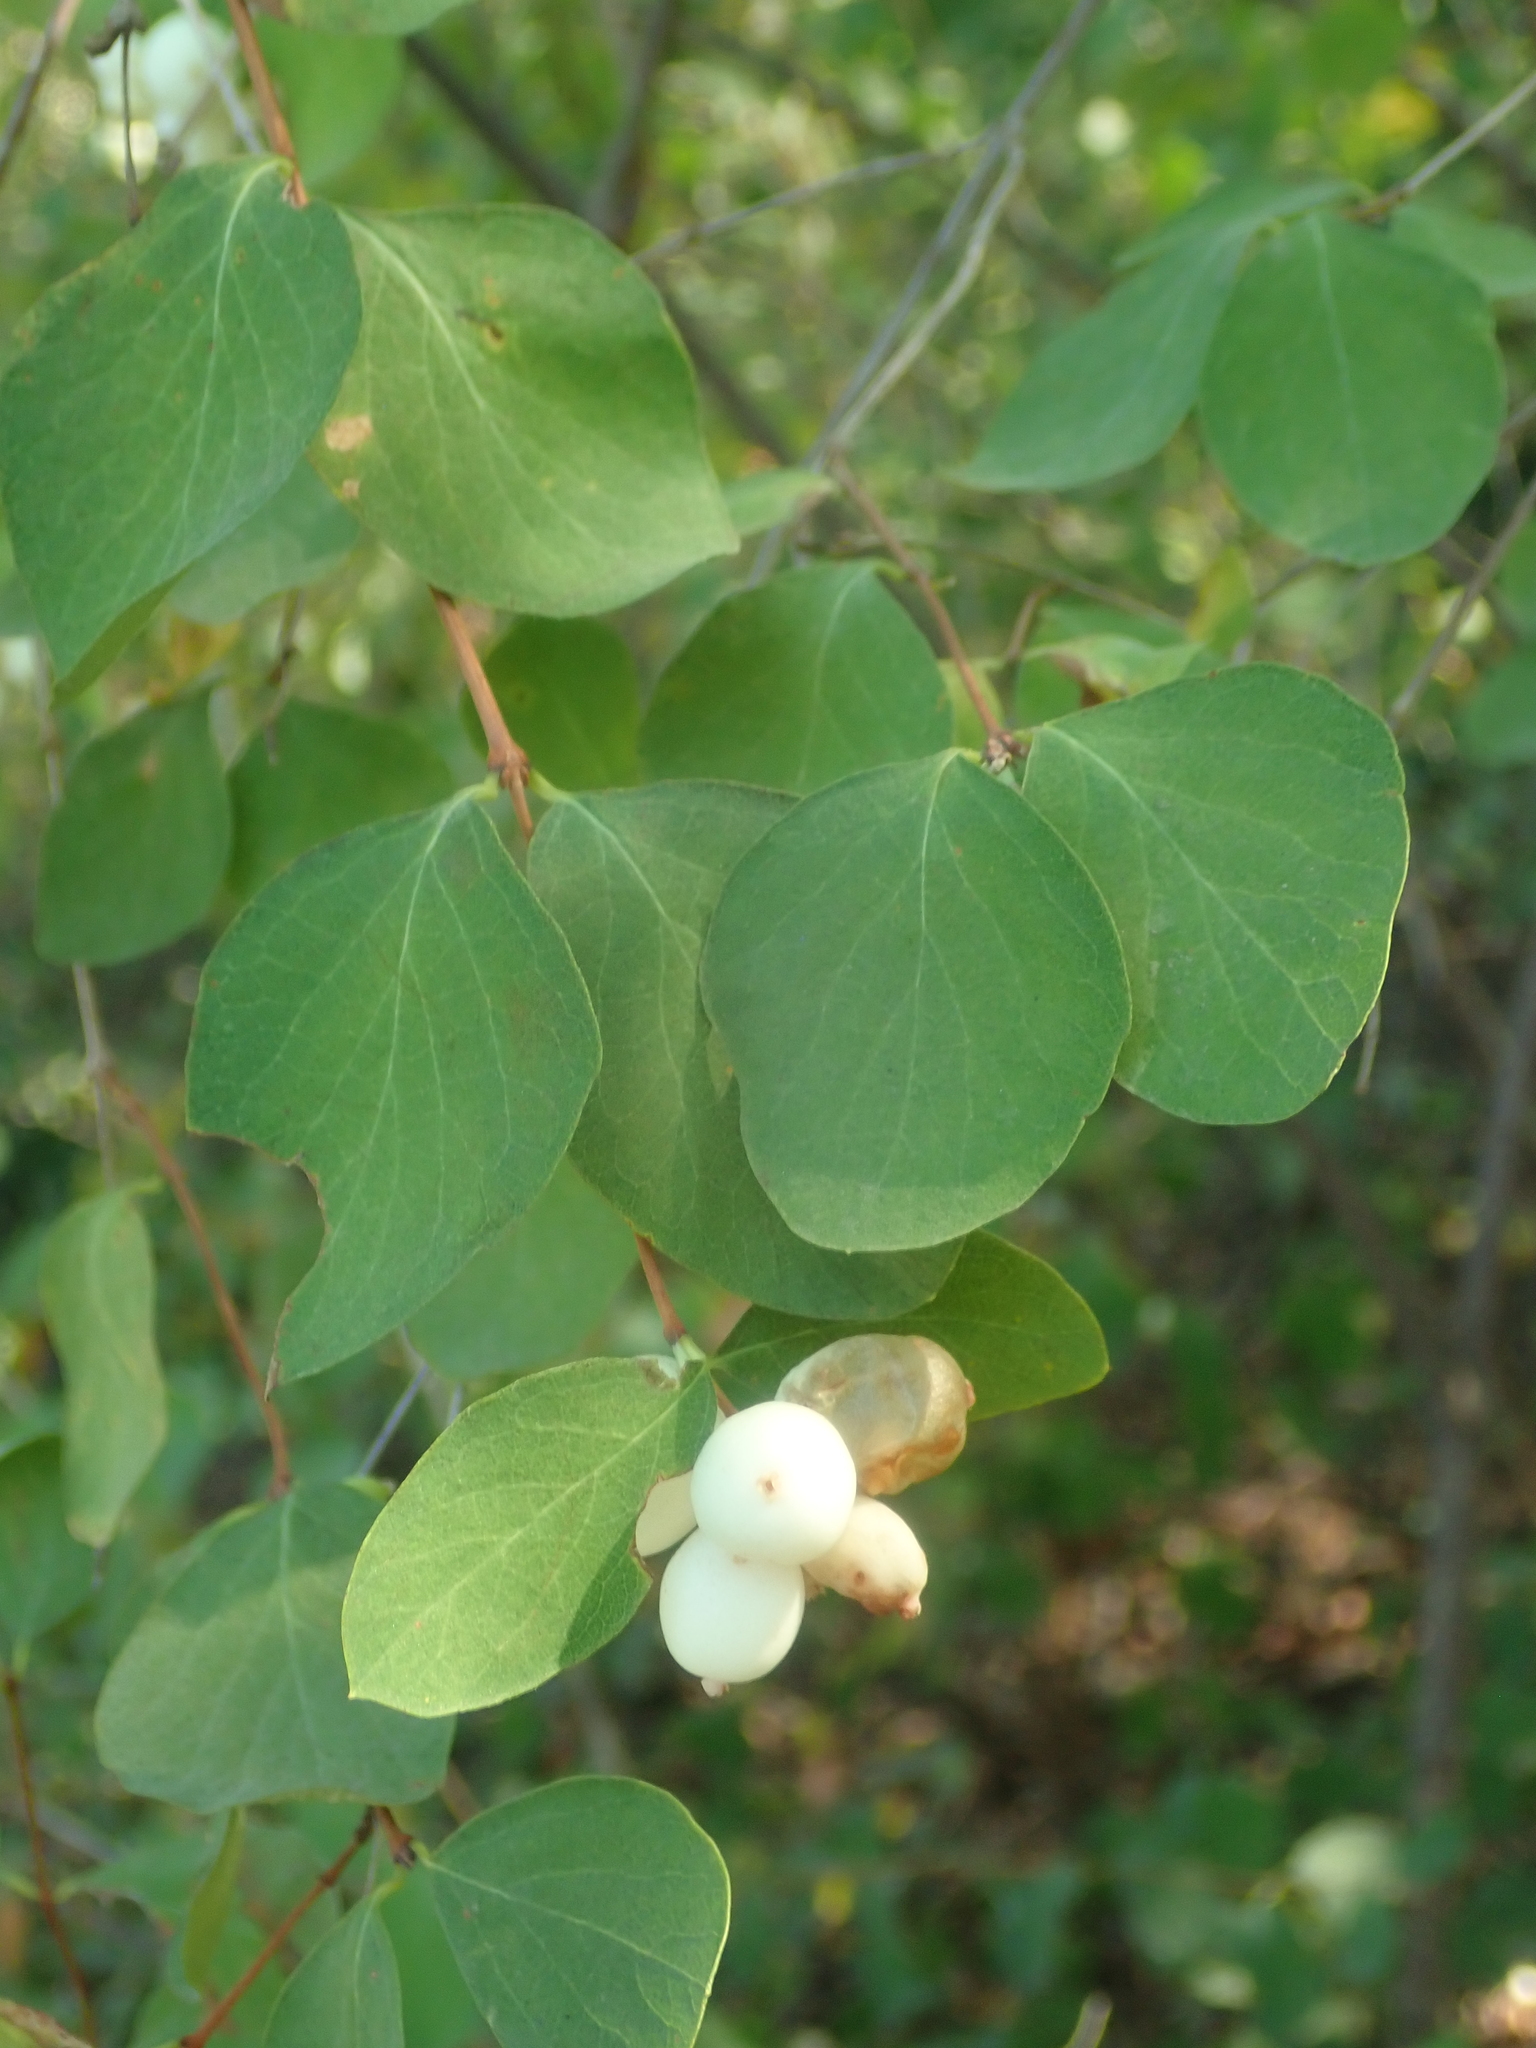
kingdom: Plantae
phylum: Tracheophyta
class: Magnoliopsida
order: Dipsacales
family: Caprifoliaceae
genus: Symphoricarpos
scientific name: Symphoricarpos albus
